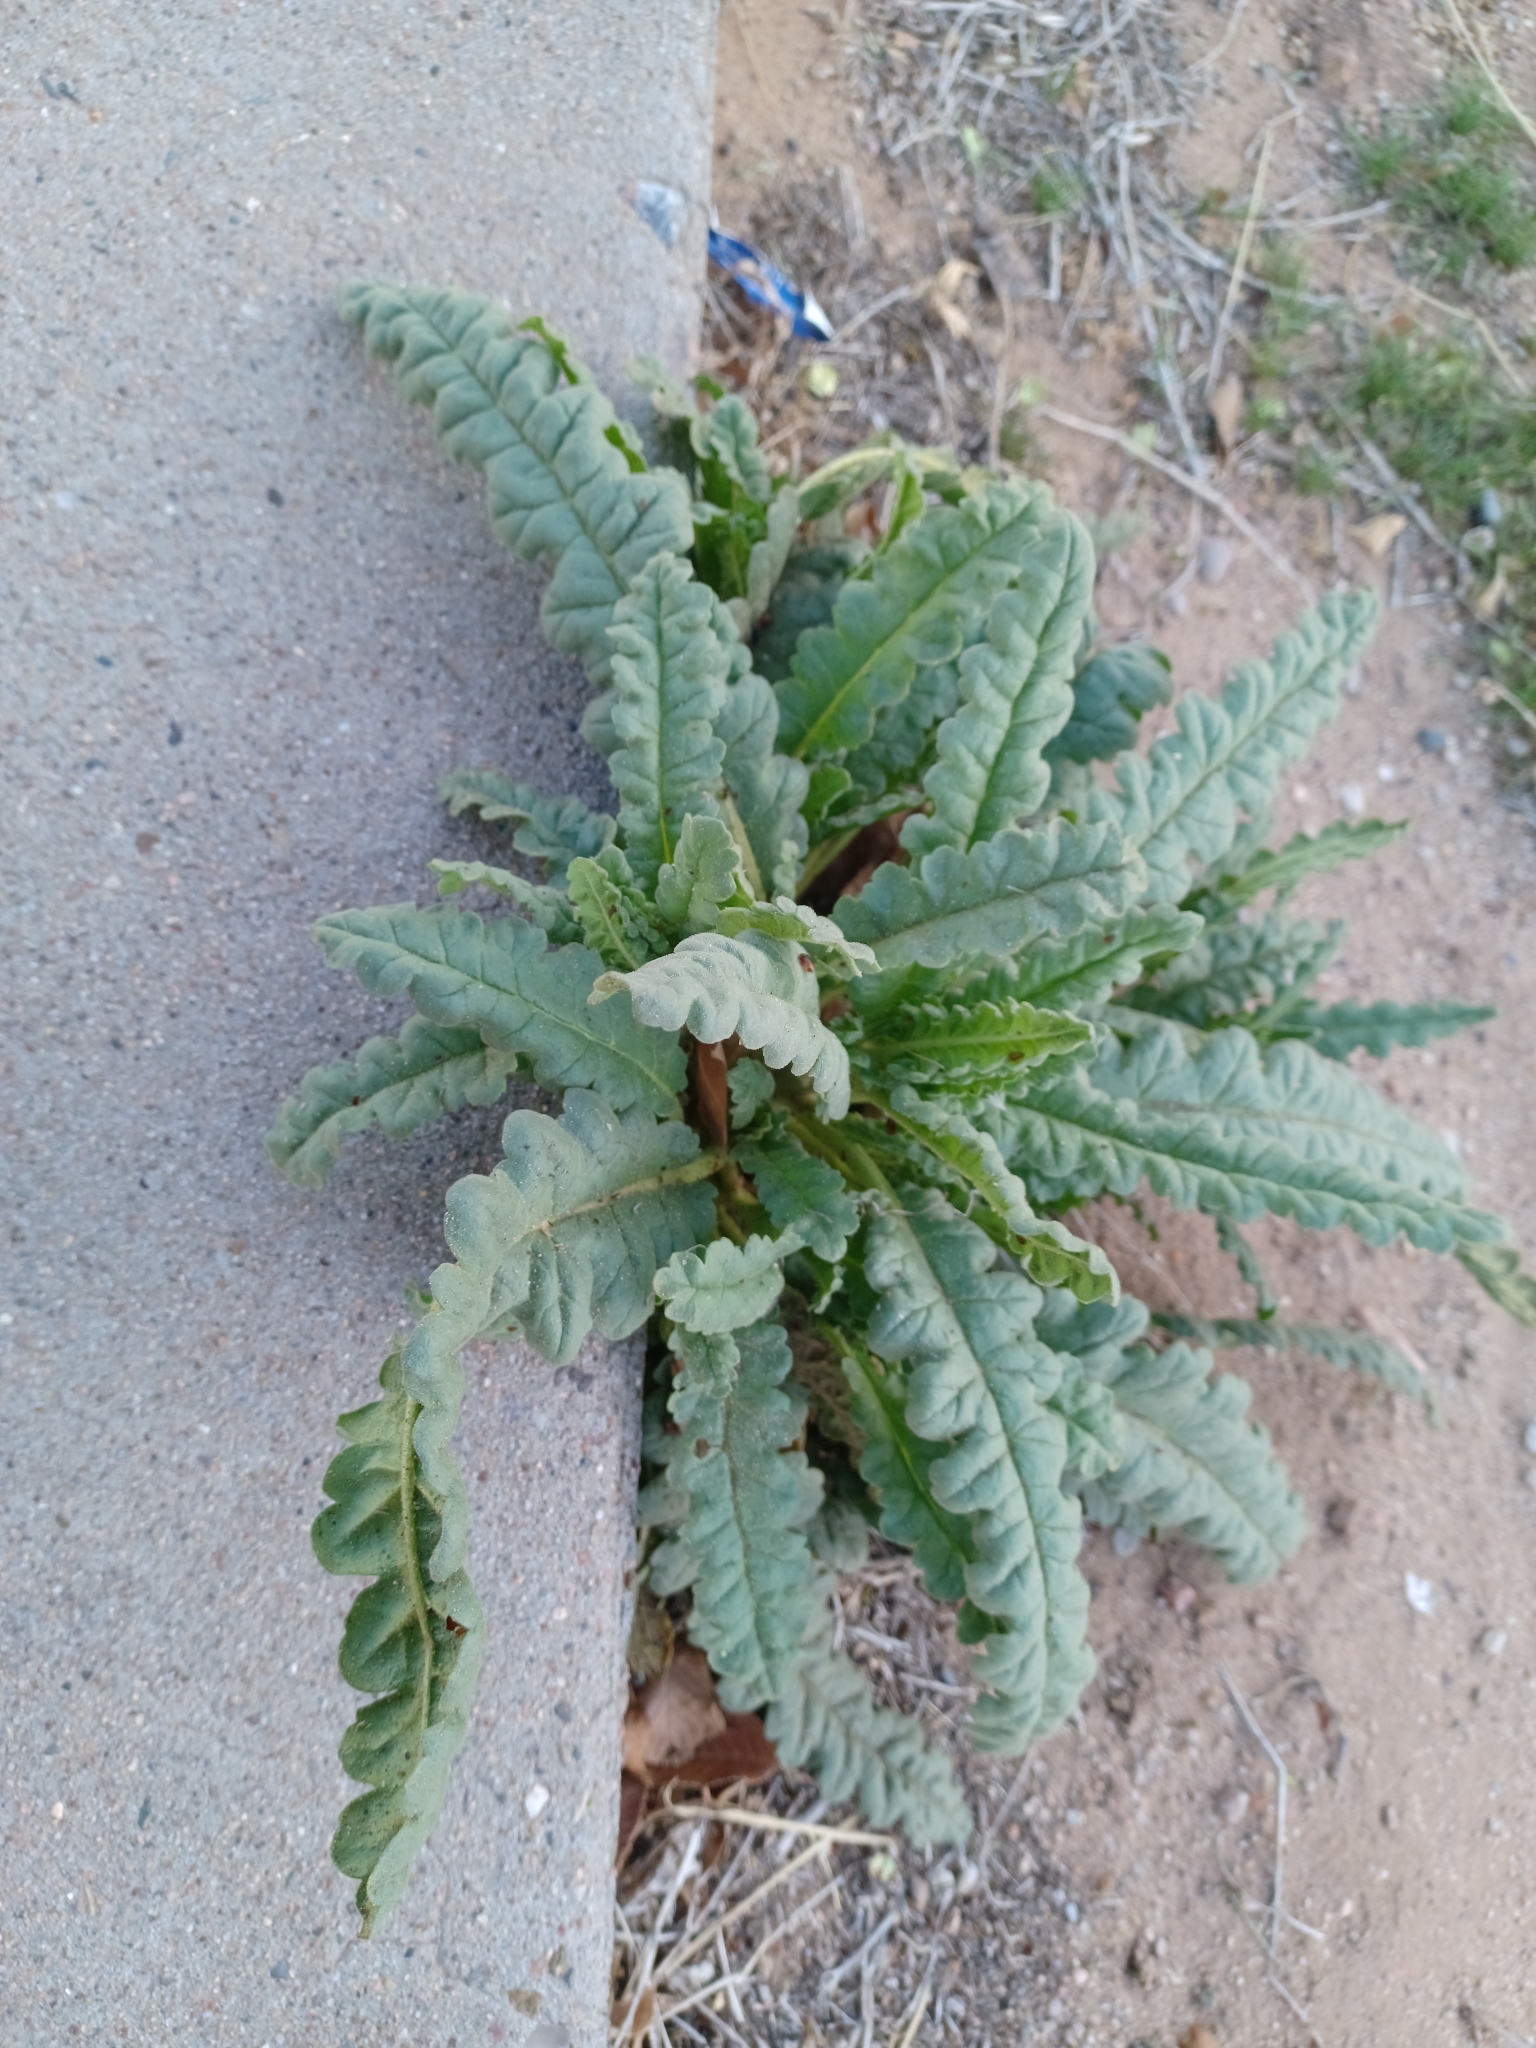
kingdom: Plantae
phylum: Tracheophyta
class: Magnoliopsida
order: Boraginales
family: Hydrophyllaceae
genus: Phacelia
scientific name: Phacelia integrifolia
